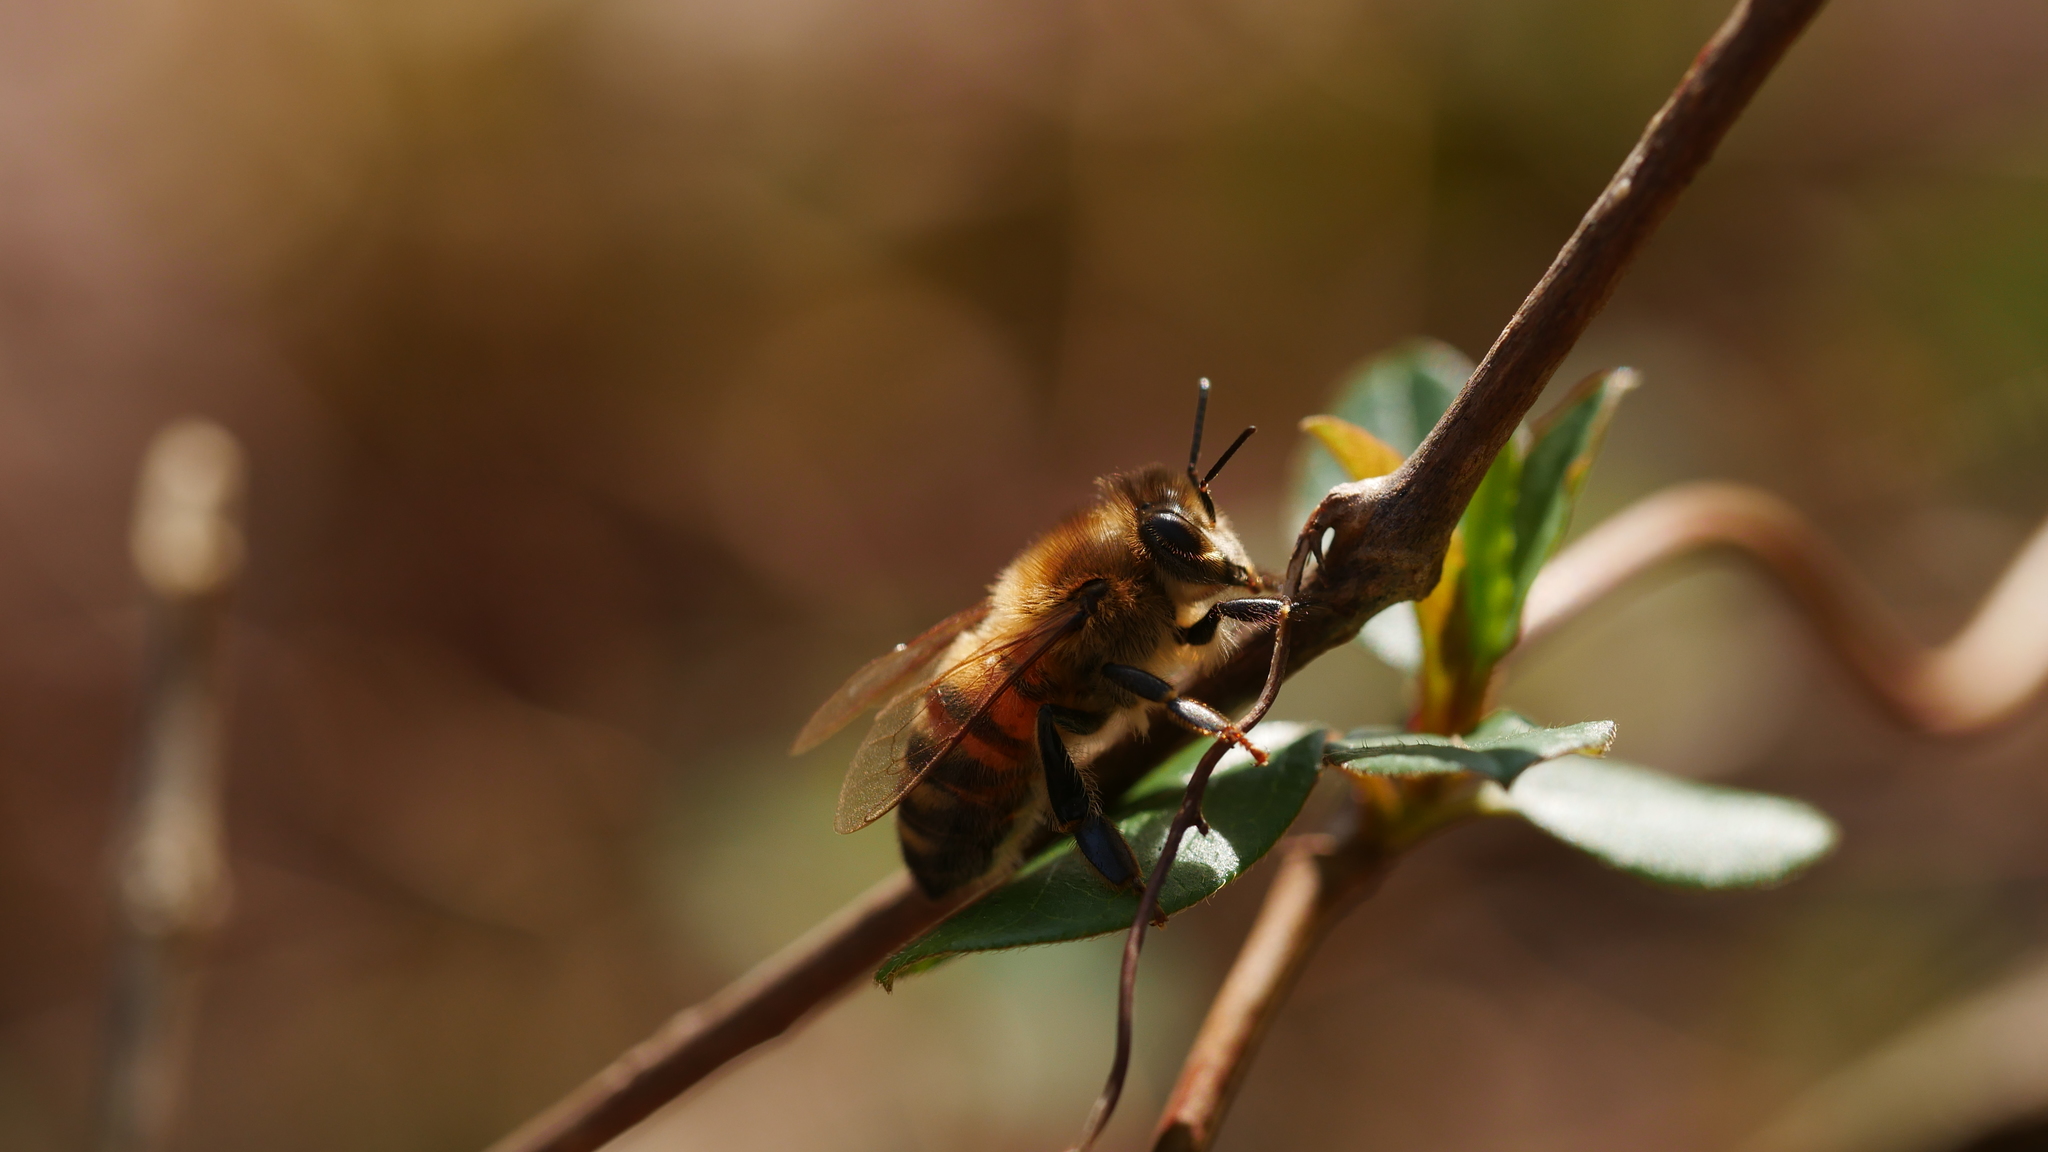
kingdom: Animalia
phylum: Arthropoda
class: Insecta
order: Hymenoptera
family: Apidae
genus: Apis
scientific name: Apis mellifera
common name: Honey bee
